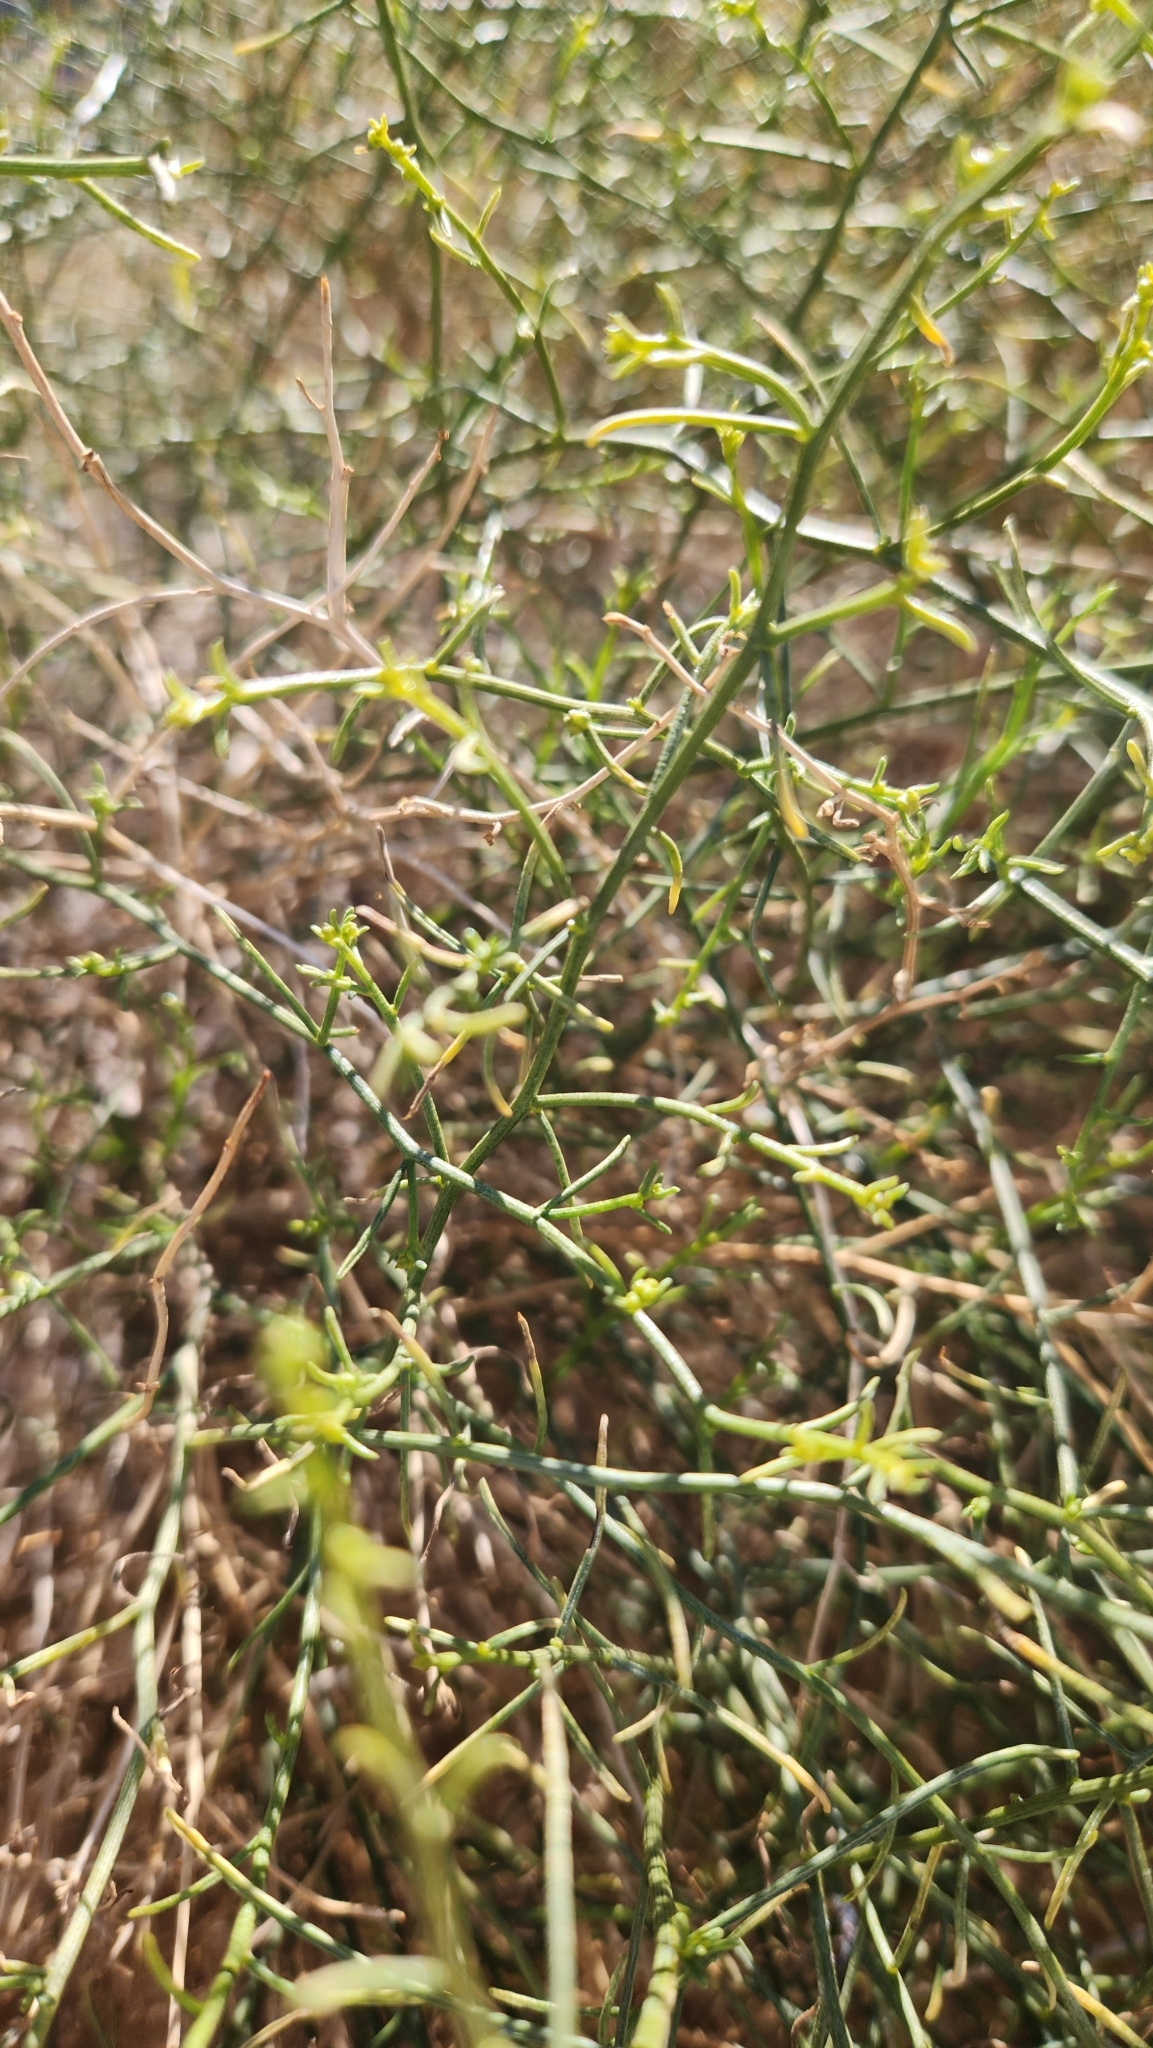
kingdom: Plantae
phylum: Tracheophyta
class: Magnoliopsida
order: Asterales
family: Asteraceae
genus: Ambrosia
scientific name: Ambrosia salsola
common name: Burrobrush
